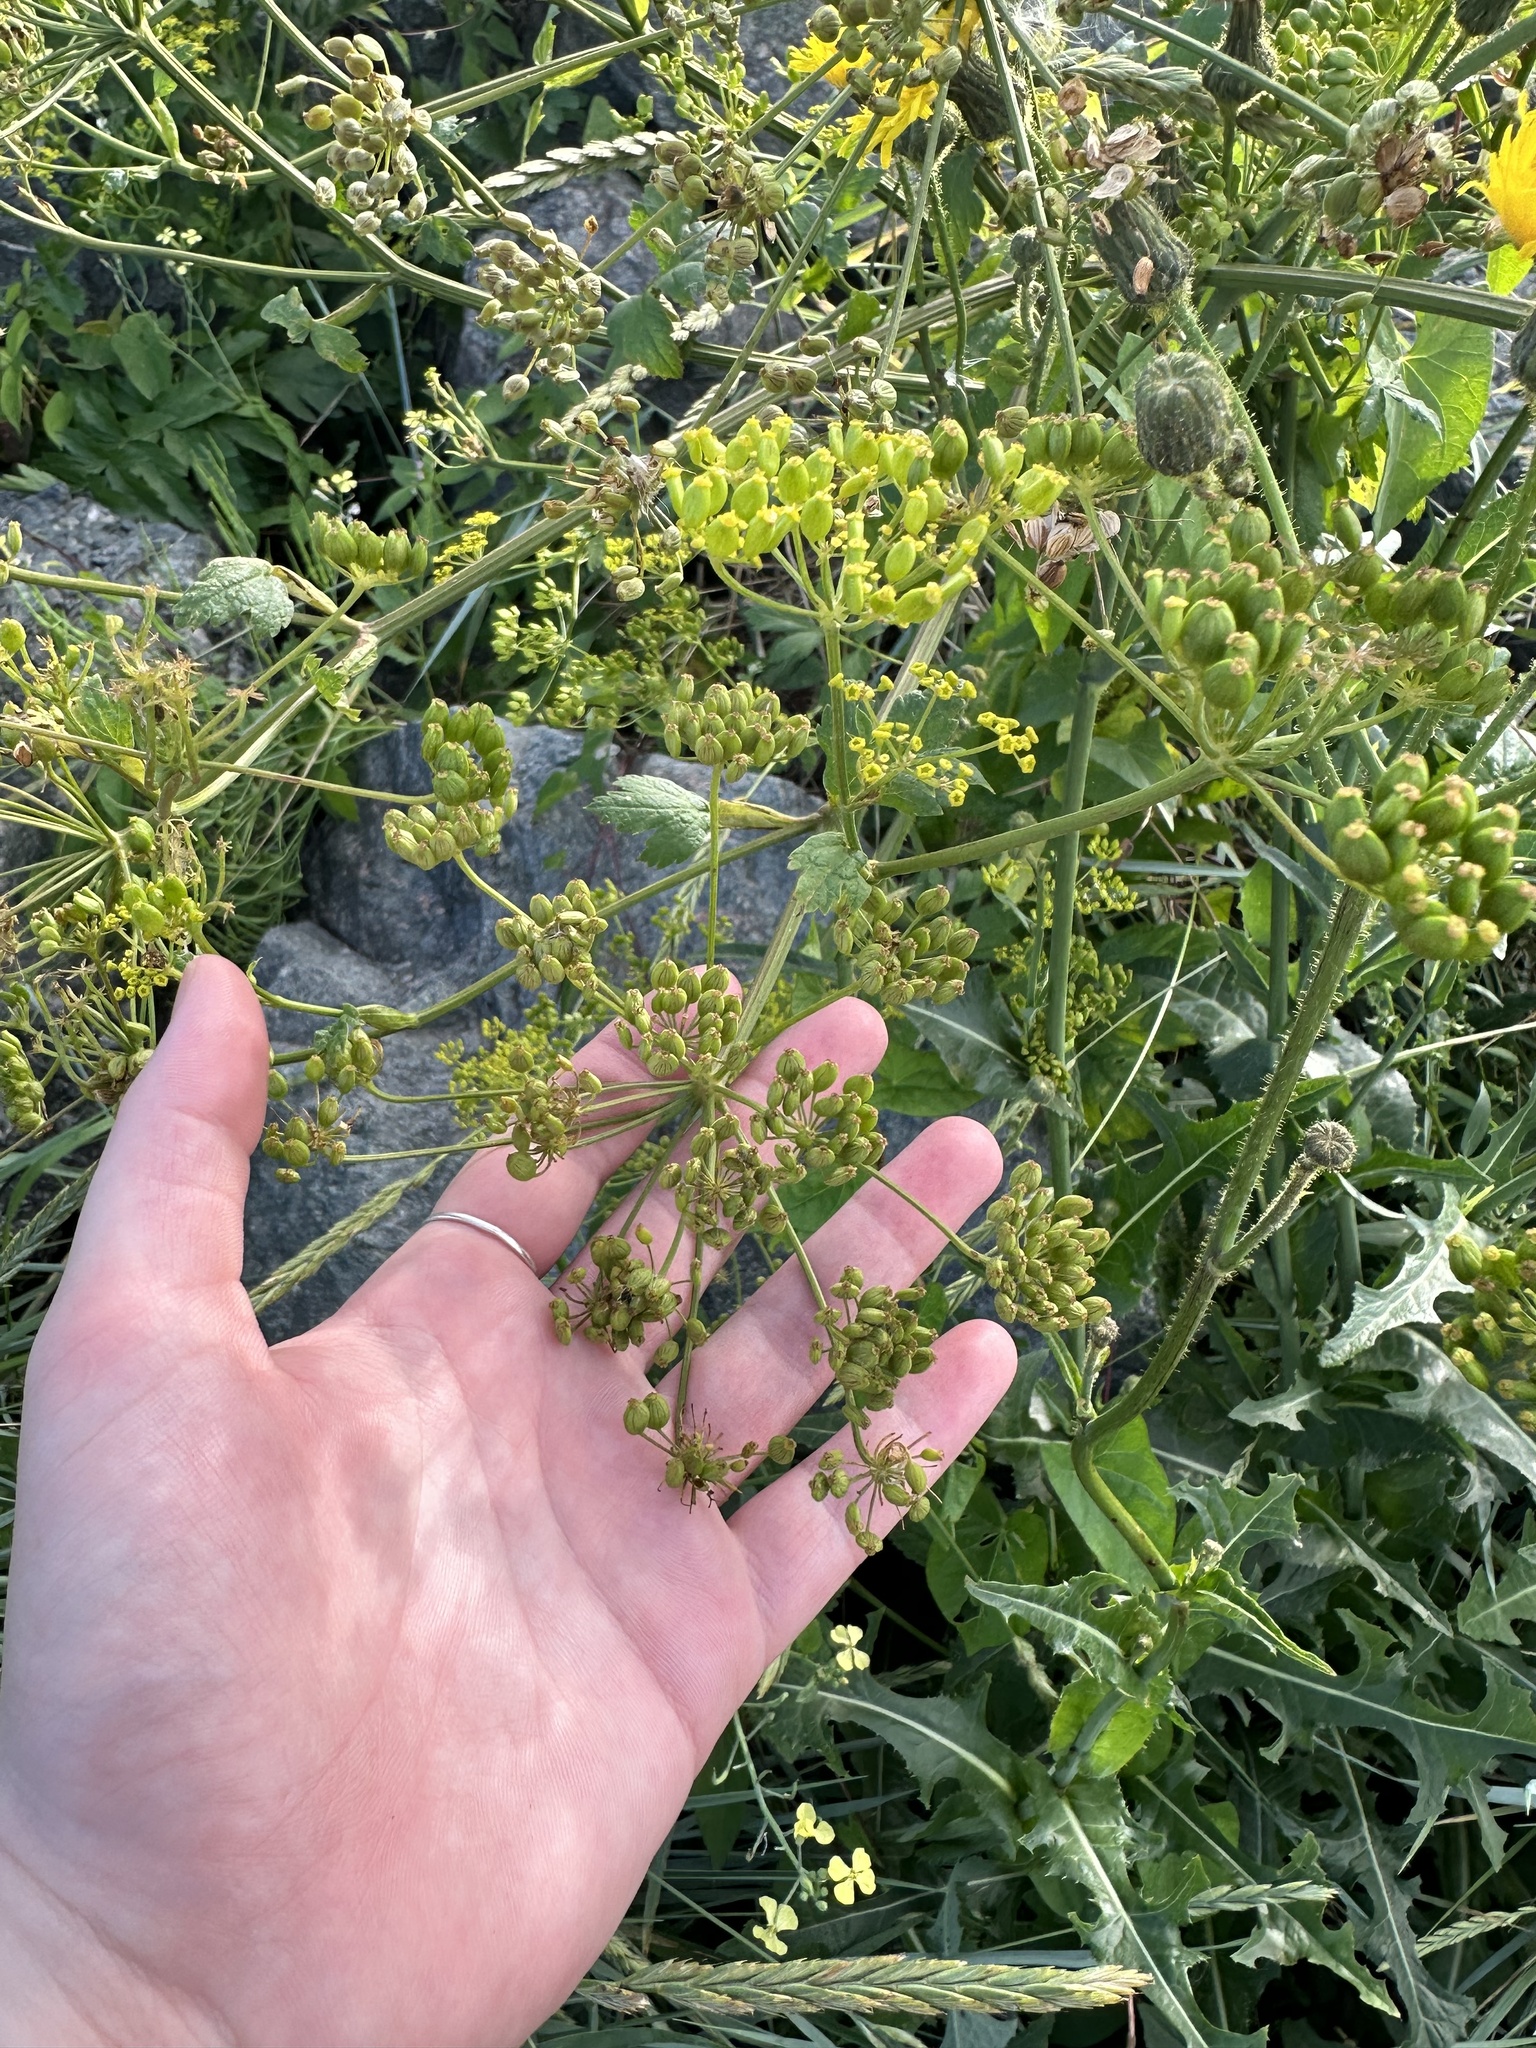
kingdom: Plantae
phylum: Tracheophyta
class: Magnoliopsida
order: Apiales
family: Apiaceae
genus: Pastinaca
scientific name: Pastinaca sativa
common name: Wild parsnip
